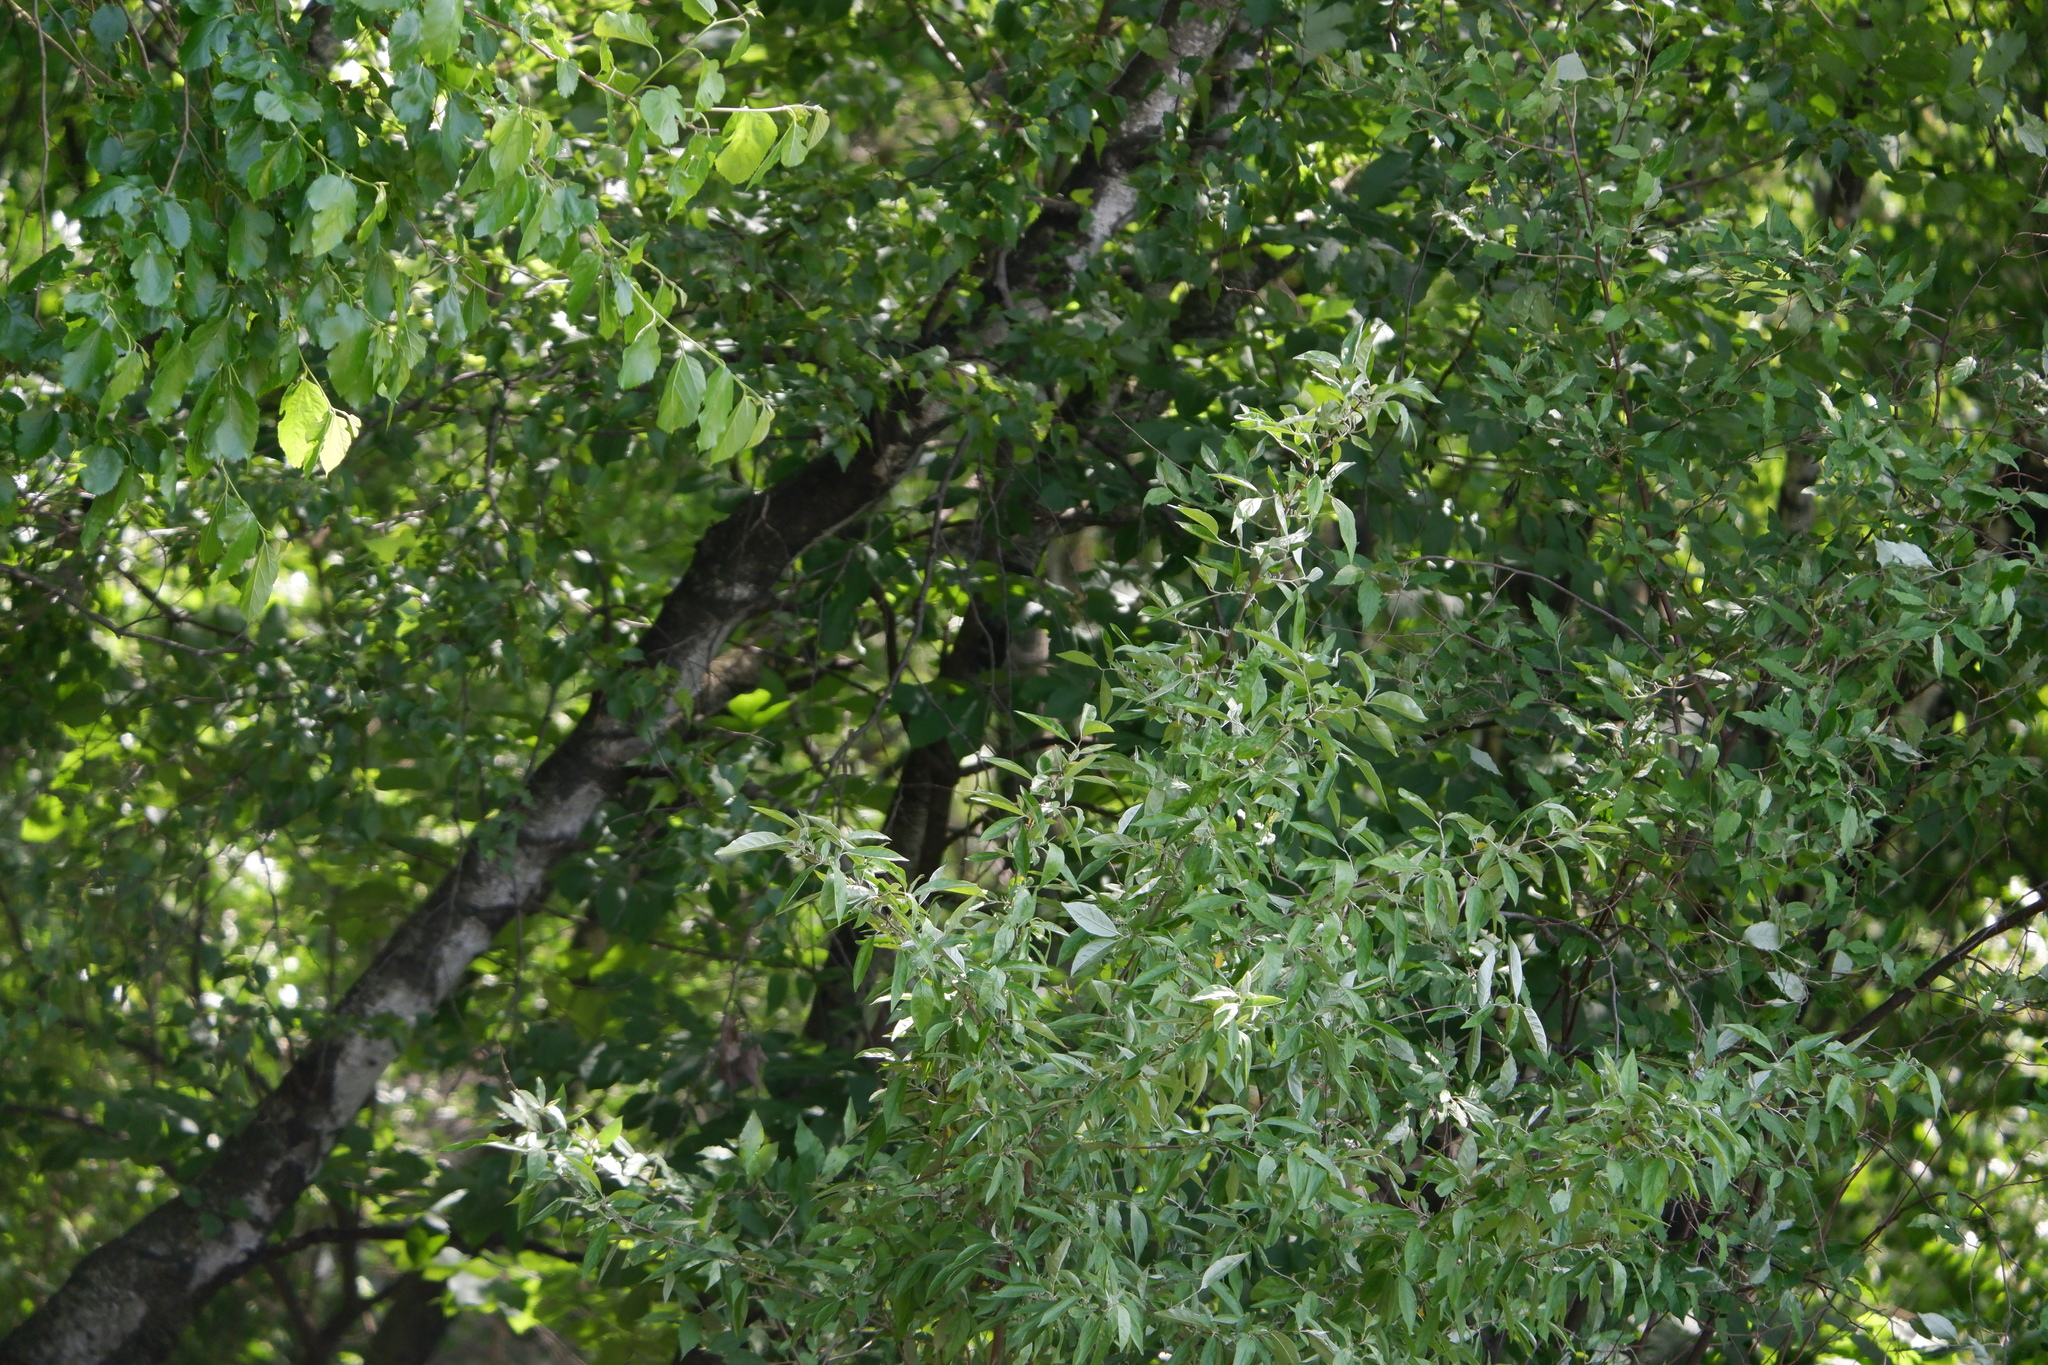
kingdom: Plantae
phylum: Tracheophyta
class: Magnoliopsida
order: Rosales
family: Elaeagnaceae
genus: Elaeagnus
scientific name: Elaeagnus umbellata
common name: Autumn olive
